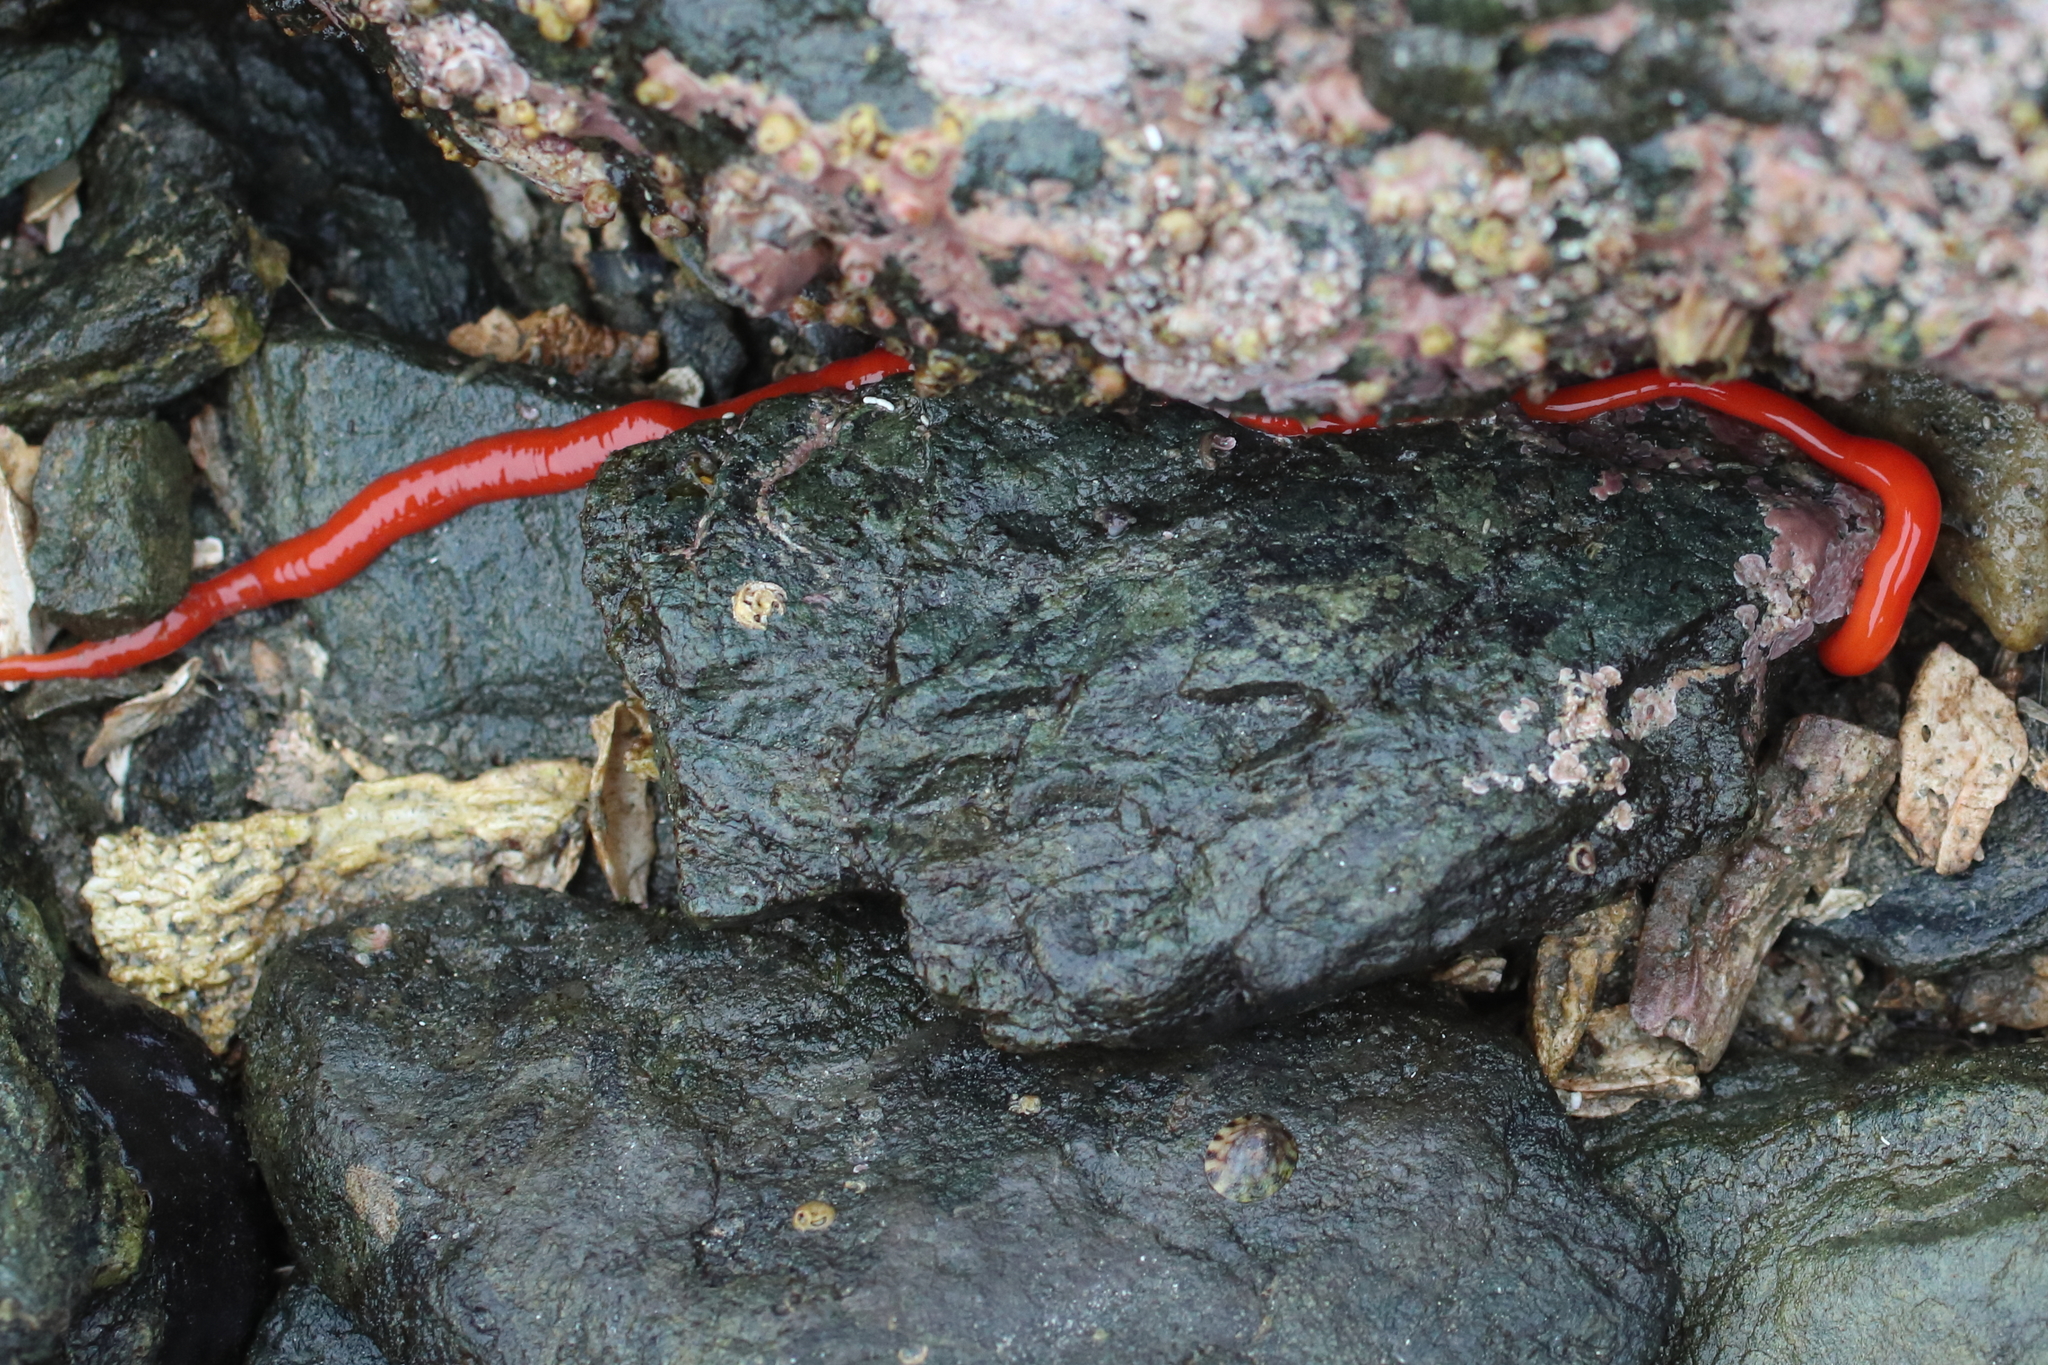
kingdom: Animalia
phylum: Nemertea
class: Palaeonemertea
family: Tubulanidae
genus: Tubulanus
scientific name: Tubulanus polymorphus
